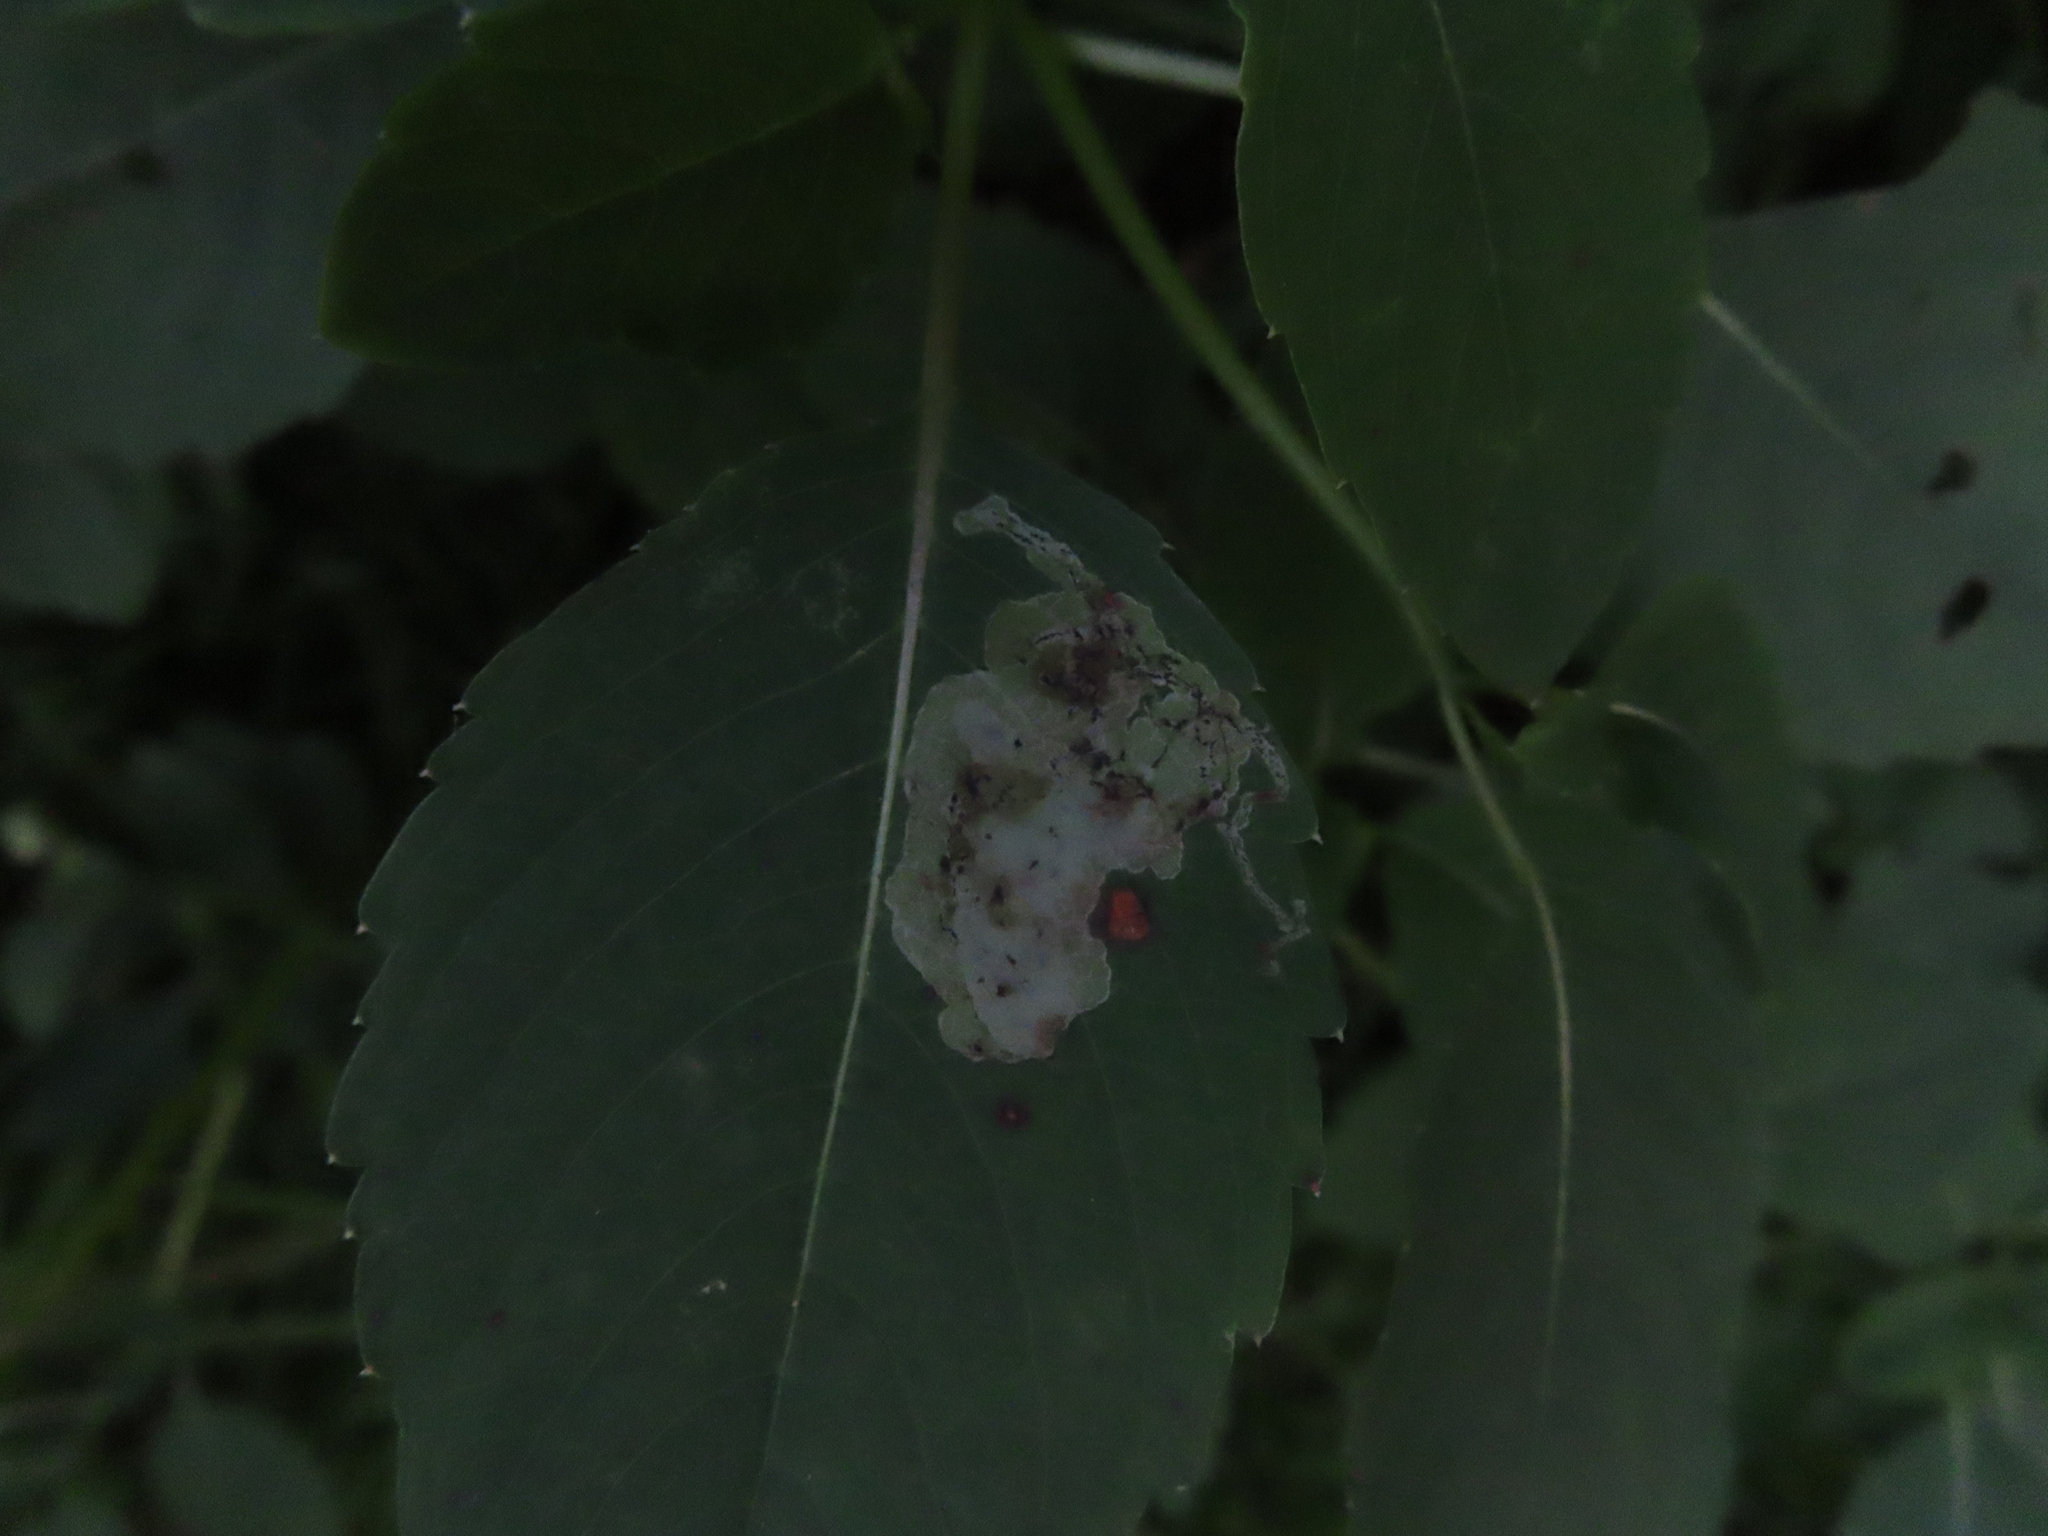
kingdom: Animalia
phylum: Arthropoda
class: Insecta
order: Diptera
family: Agromyzidae
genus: Phytoliriomyza
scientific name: Phytoliriomyza melampyga
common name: Jewelweed leaf-miner fly
